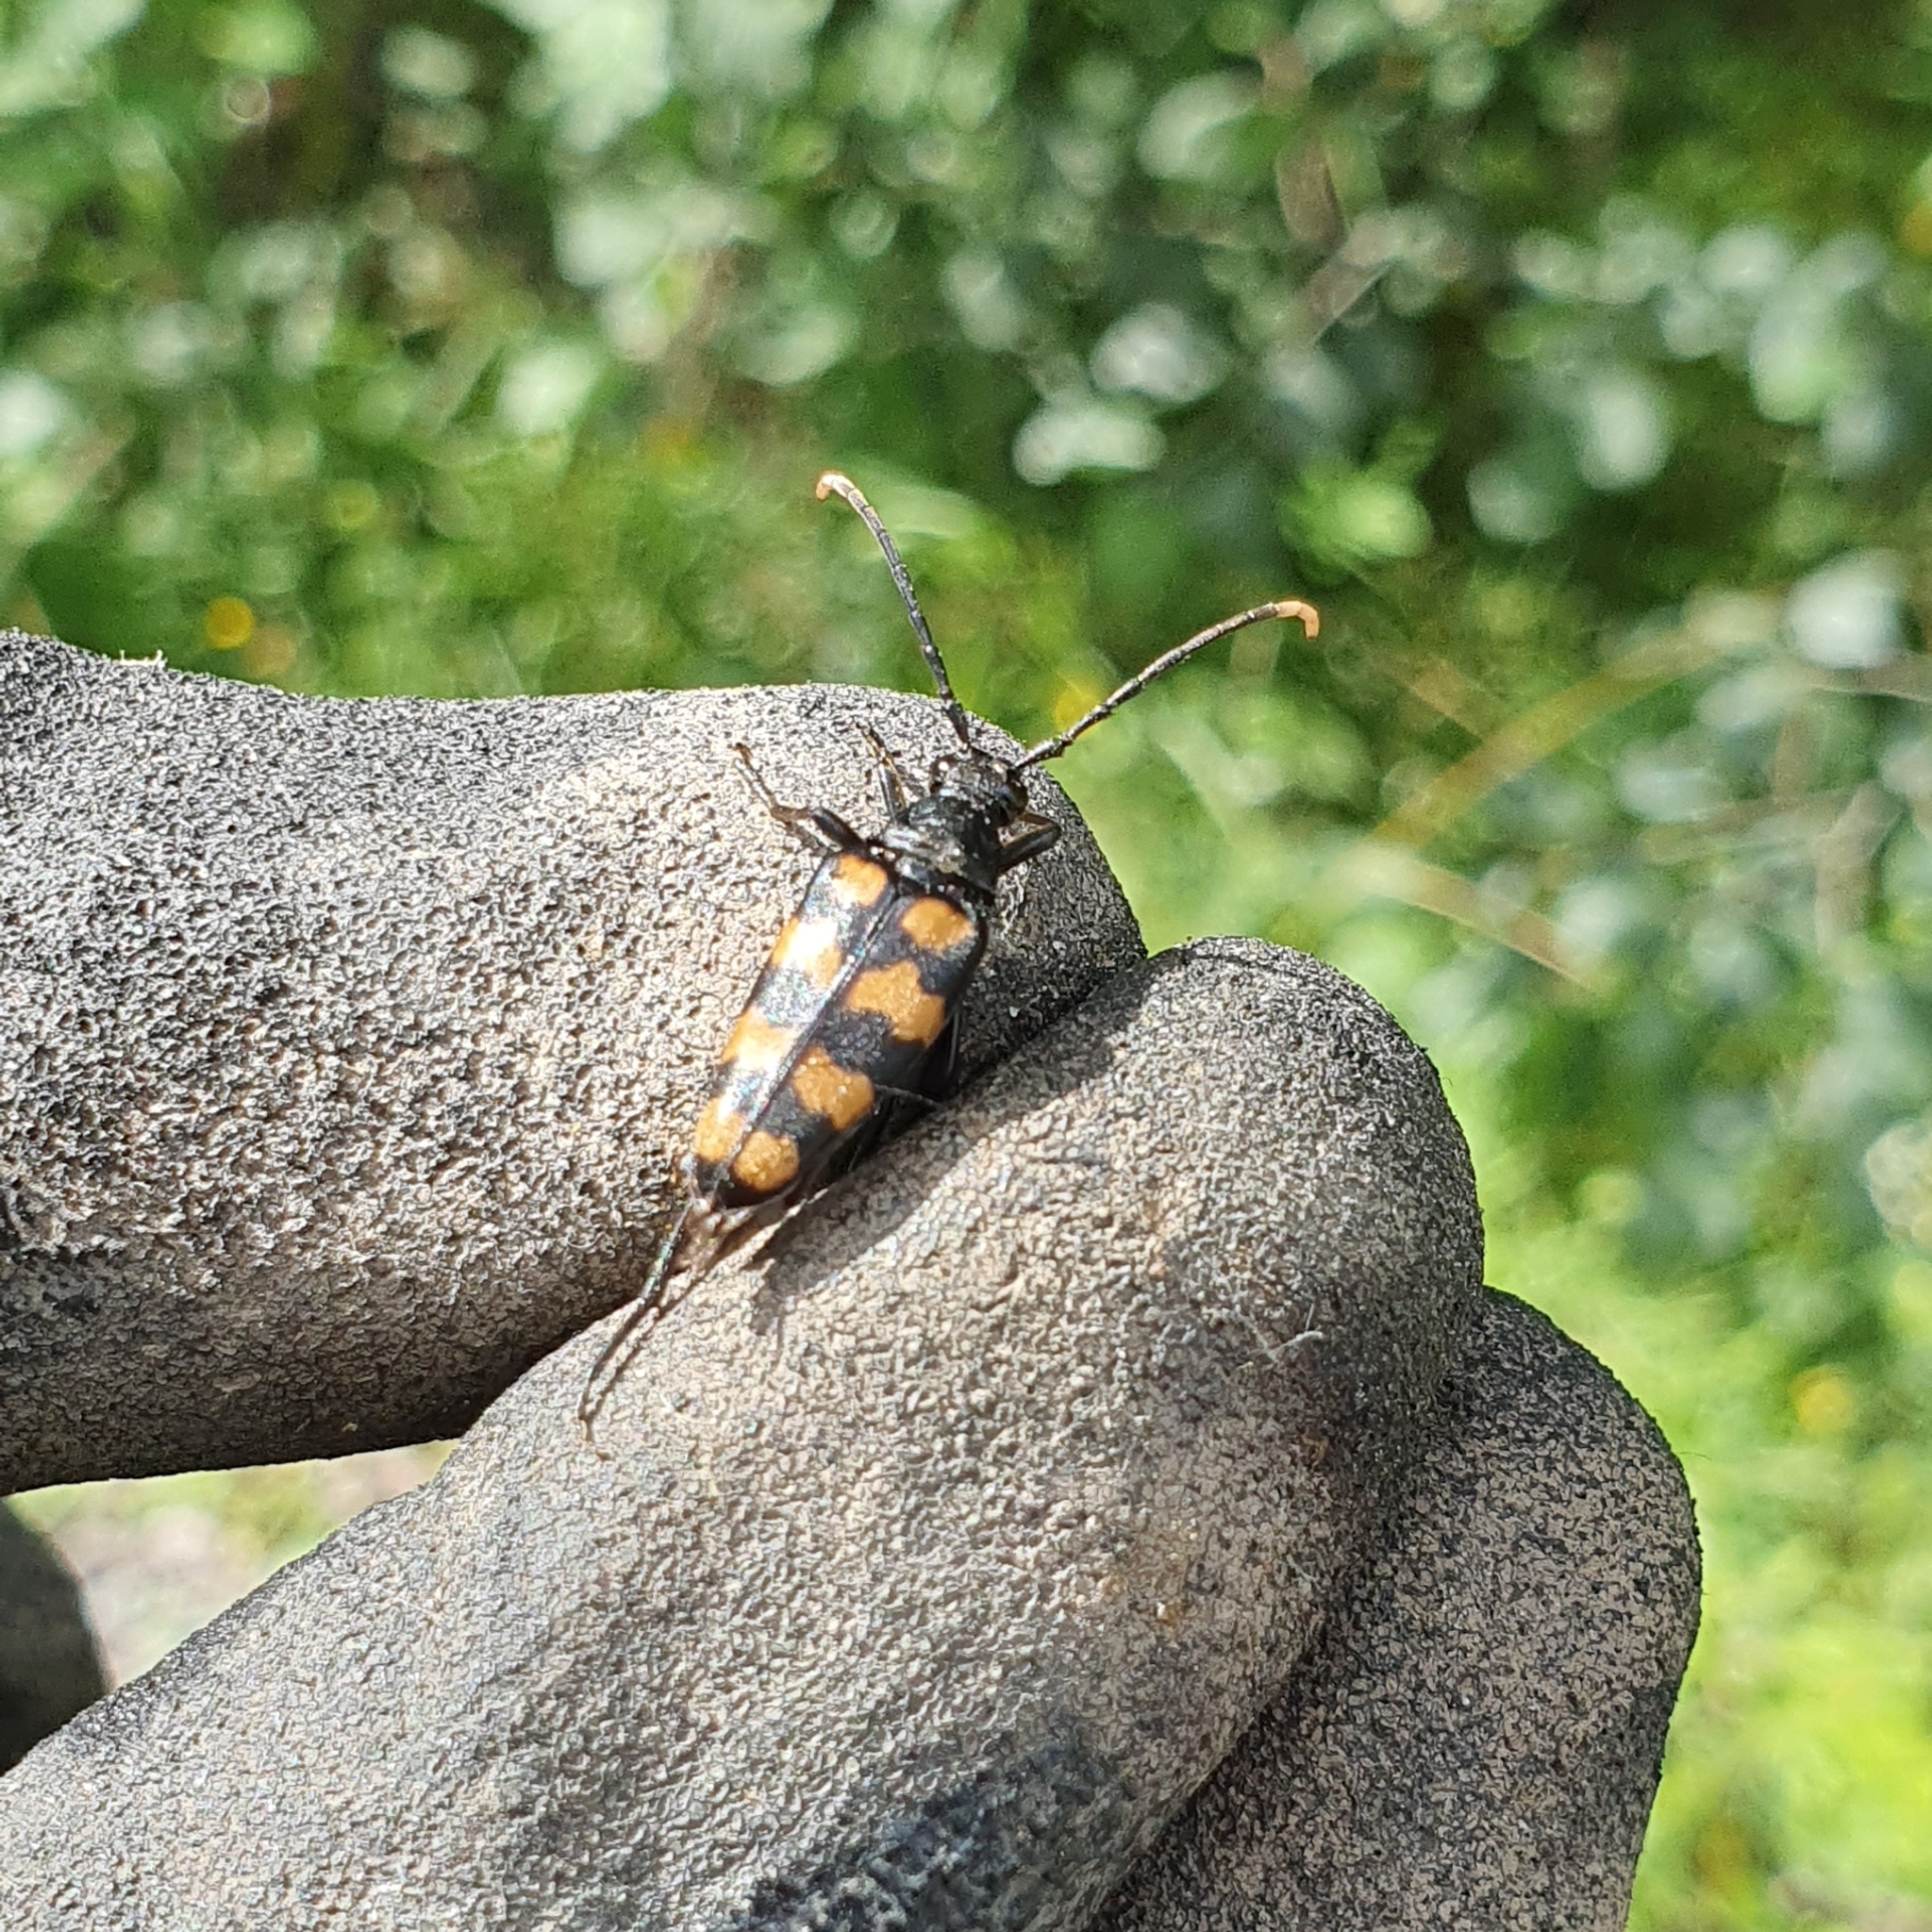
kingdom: Animalia
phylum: Arthropoda
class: Insecta
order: Coleoptera
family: Cerambycidae
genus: Leptura
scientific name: Leptura quadrifasciata
